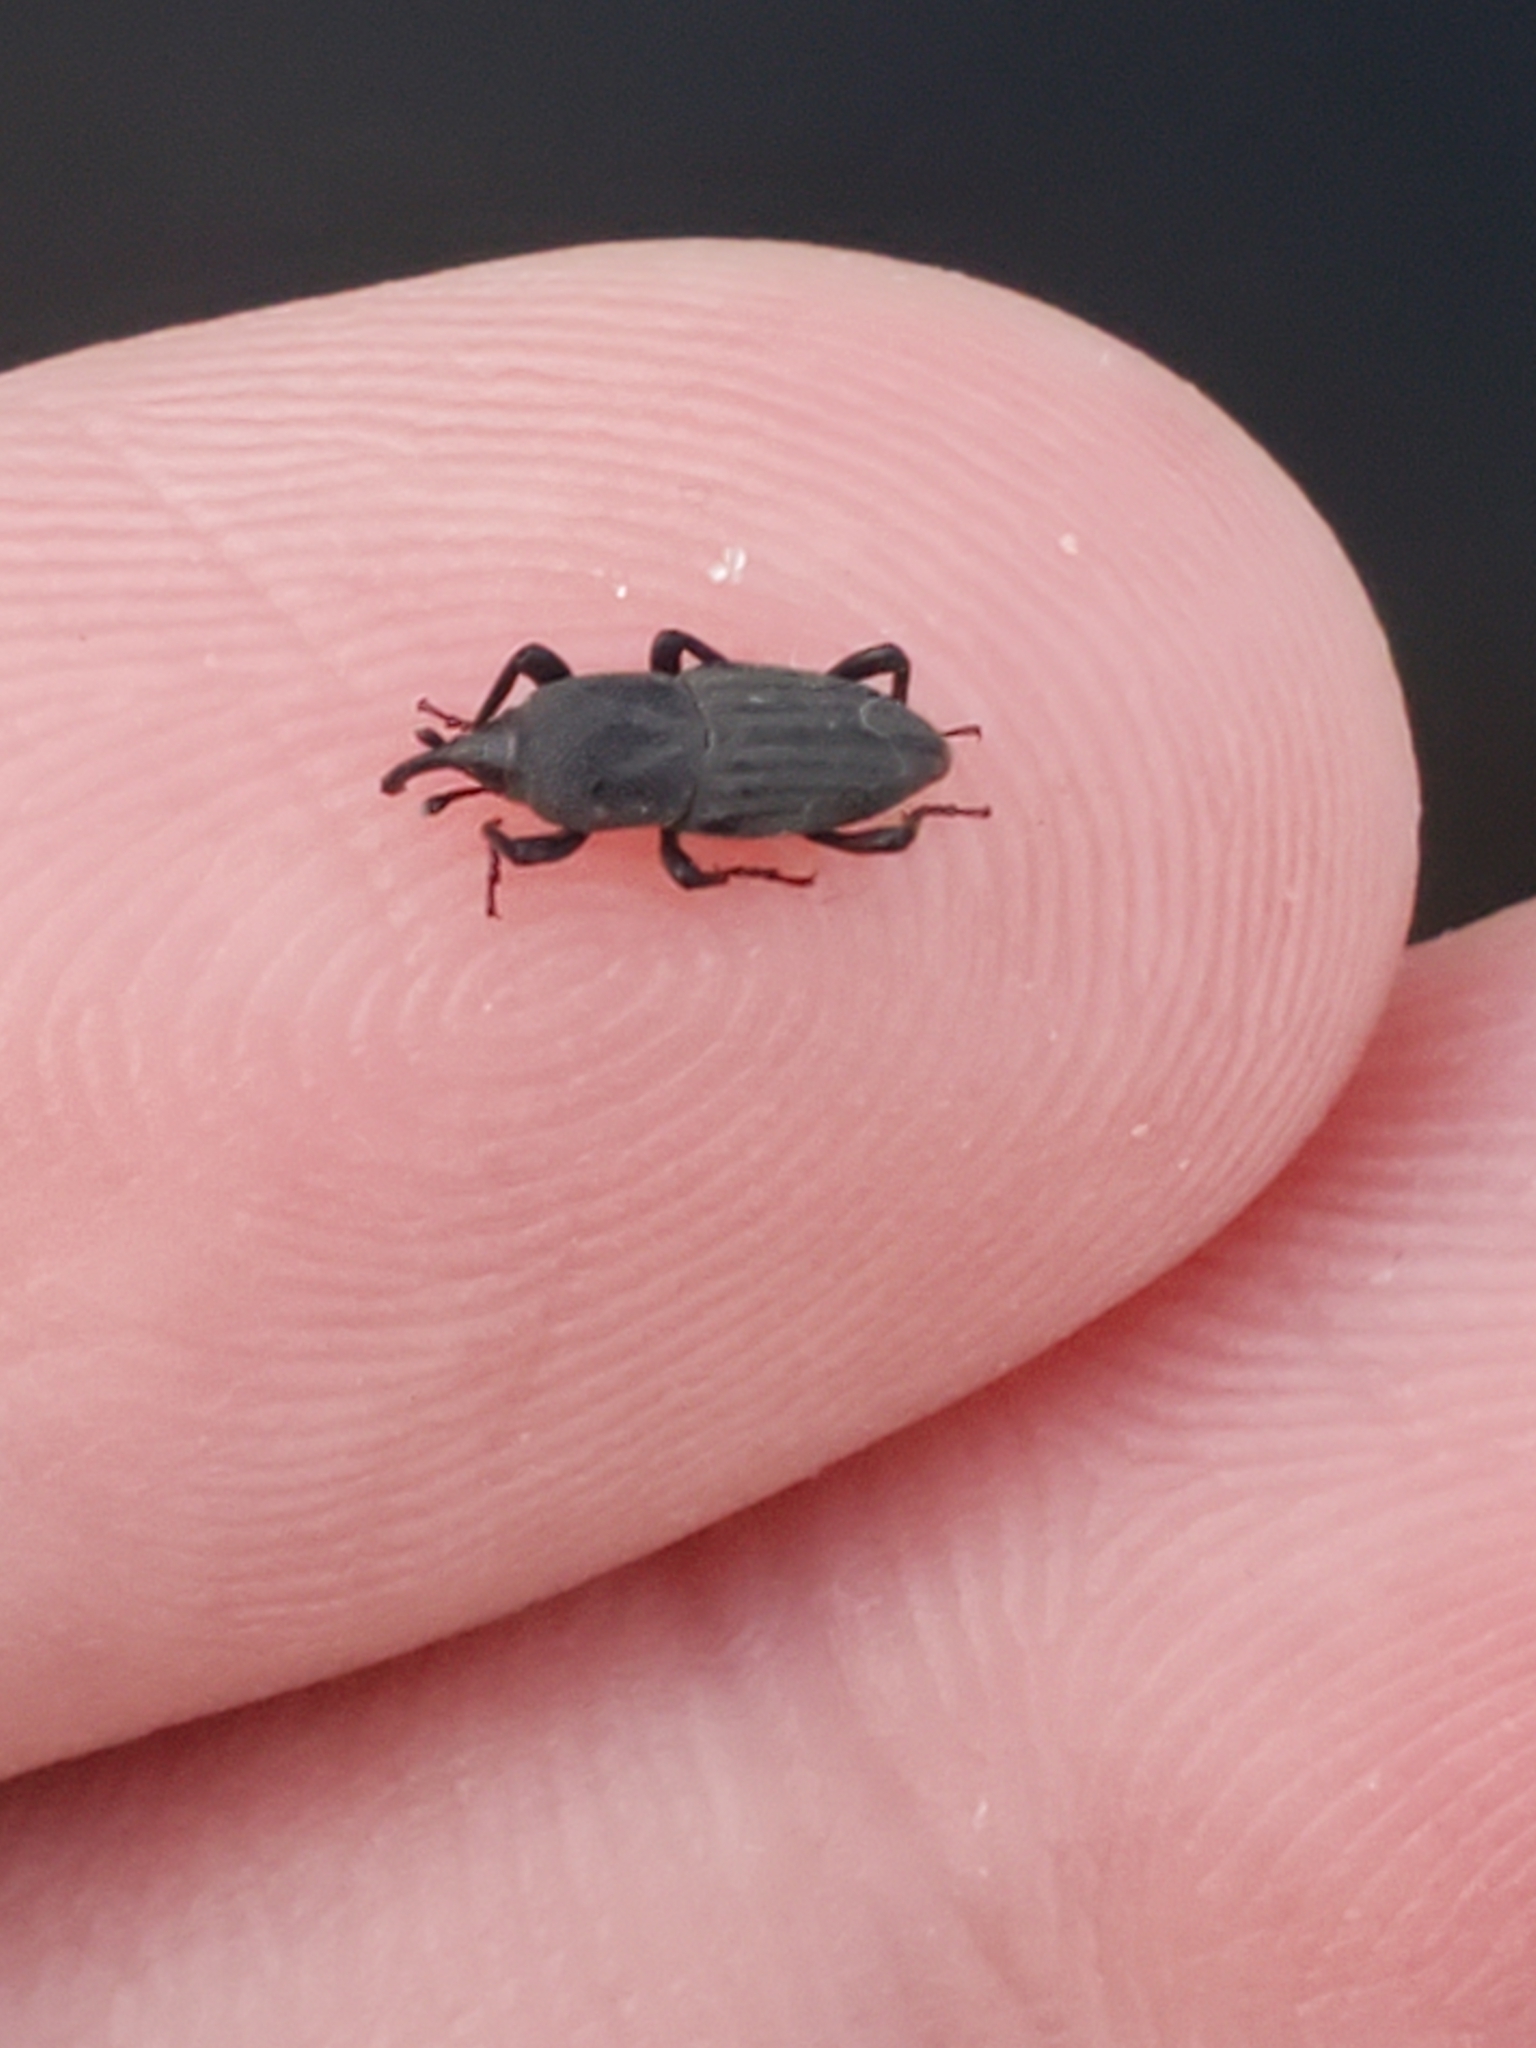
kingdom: Animalia
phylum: Arthropoda
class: Insecta
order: Coleoptera
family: Dryophthoridae
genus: Sphenophorus
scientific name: Sphenophorus interstitialis
